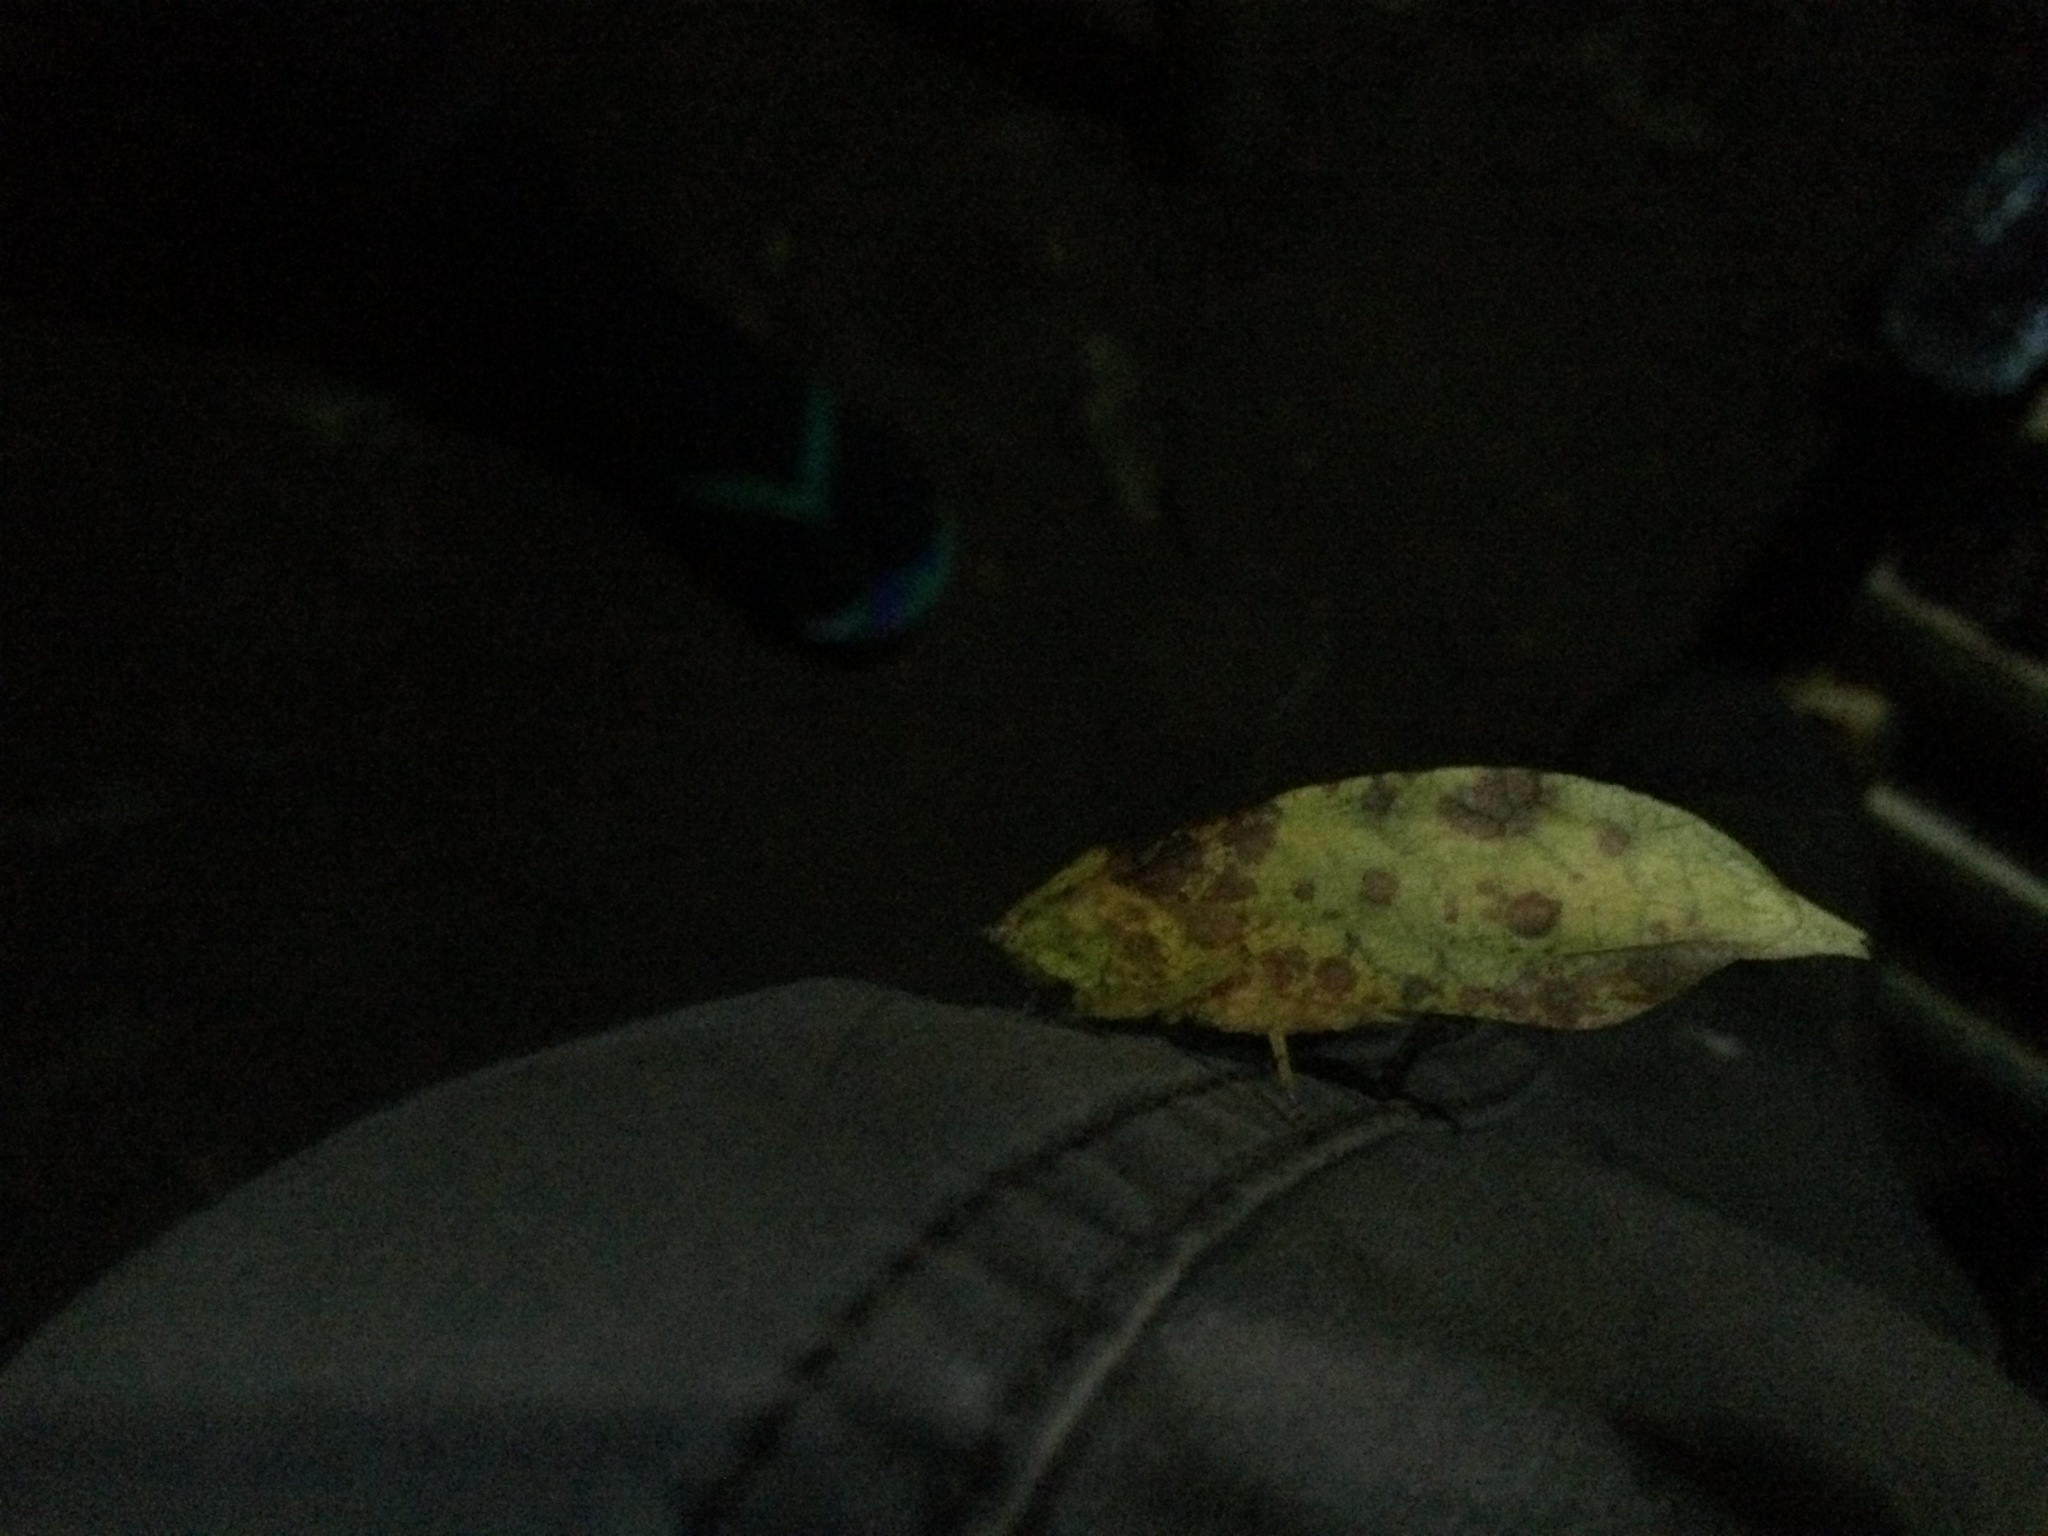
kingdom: Animalia
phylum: Arthropoda
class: Insecta
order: Orthoptera
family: Tettigoniidae
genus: Preussia
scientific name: Preussia lobatipes
